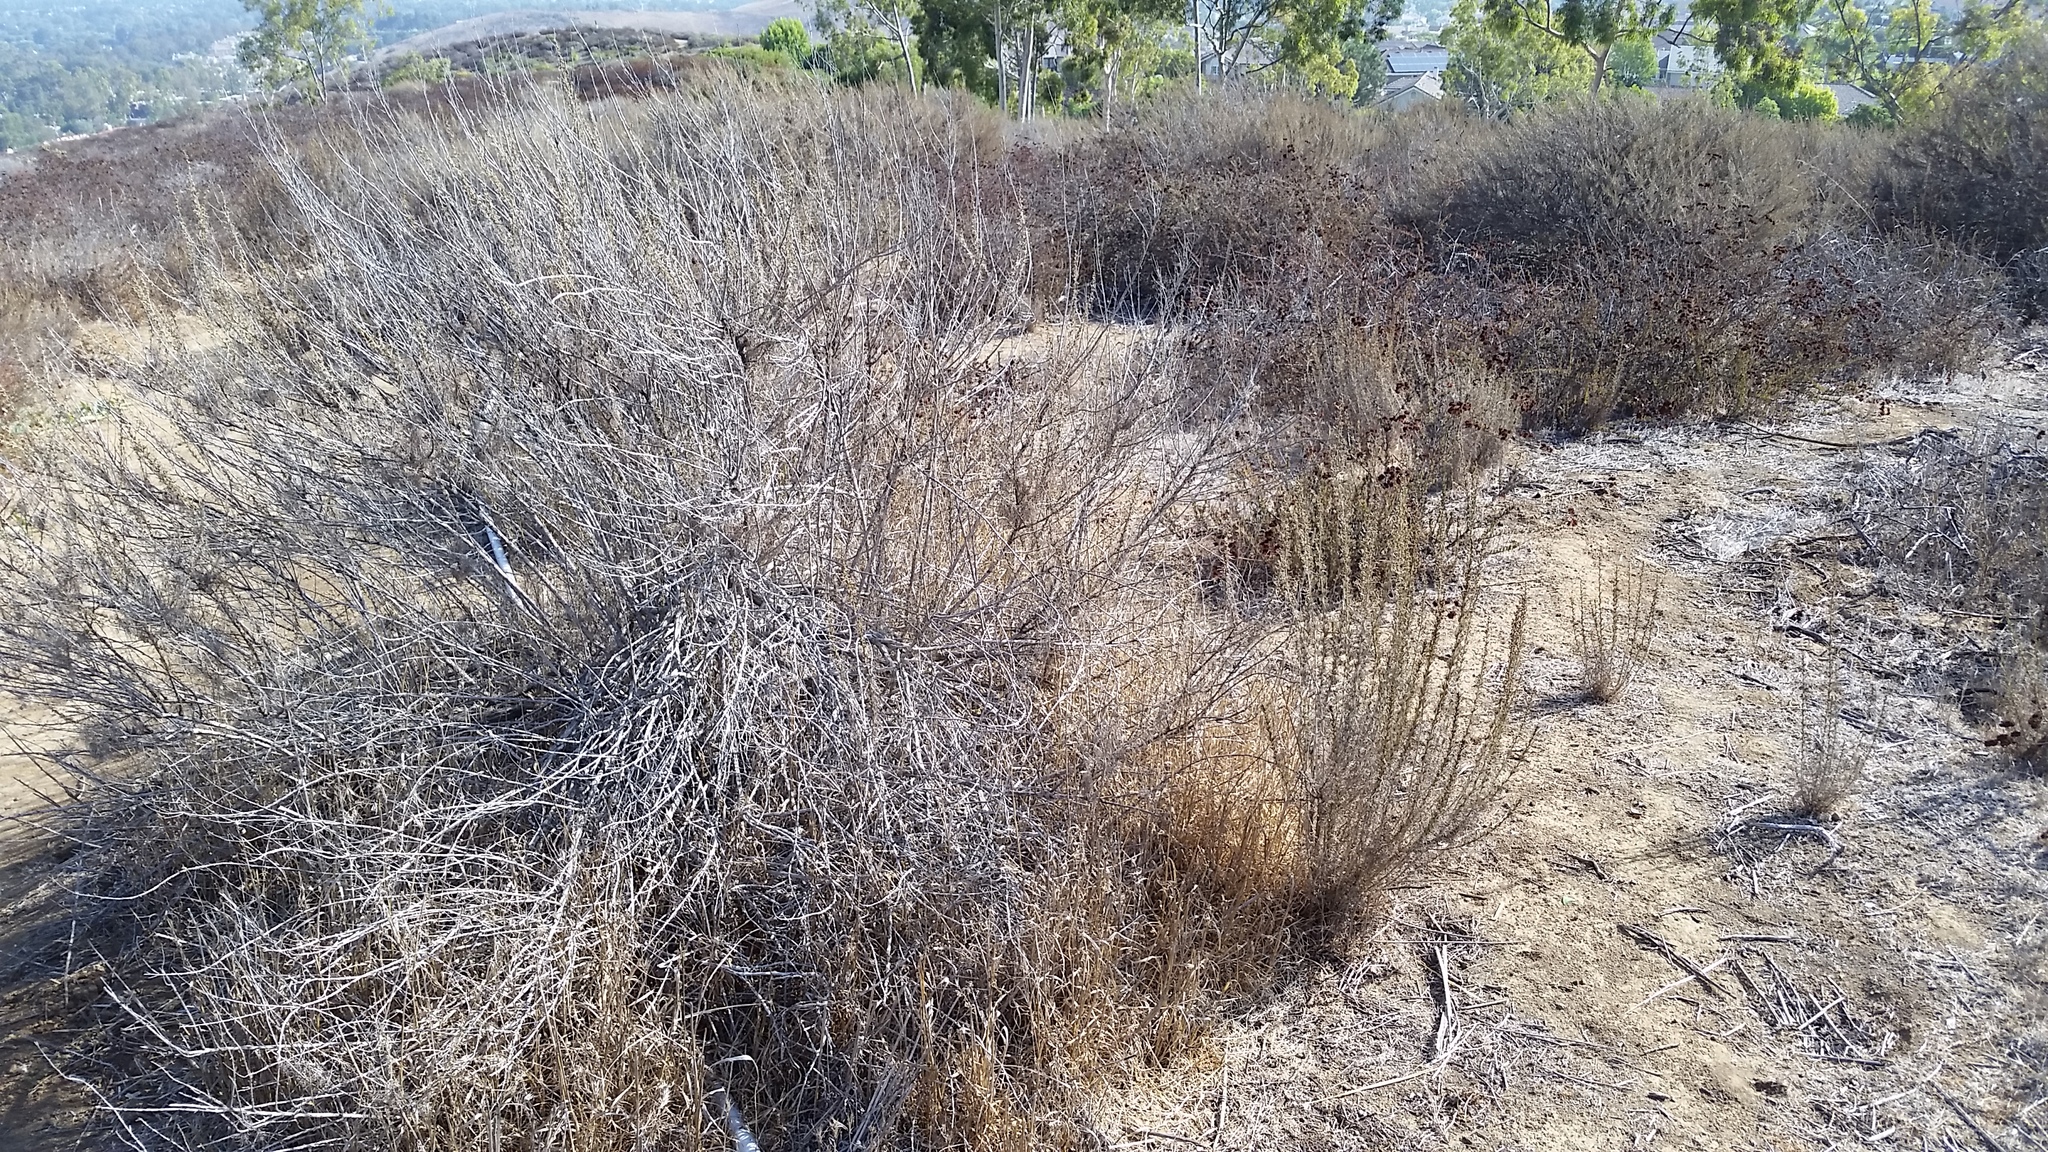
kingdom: Plantae
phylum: Tracheophyta
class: Magnoliopsida
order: Asterales
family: Asteraceae
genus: Artemisia
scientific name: Artemisia californica
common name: California sagebrush
